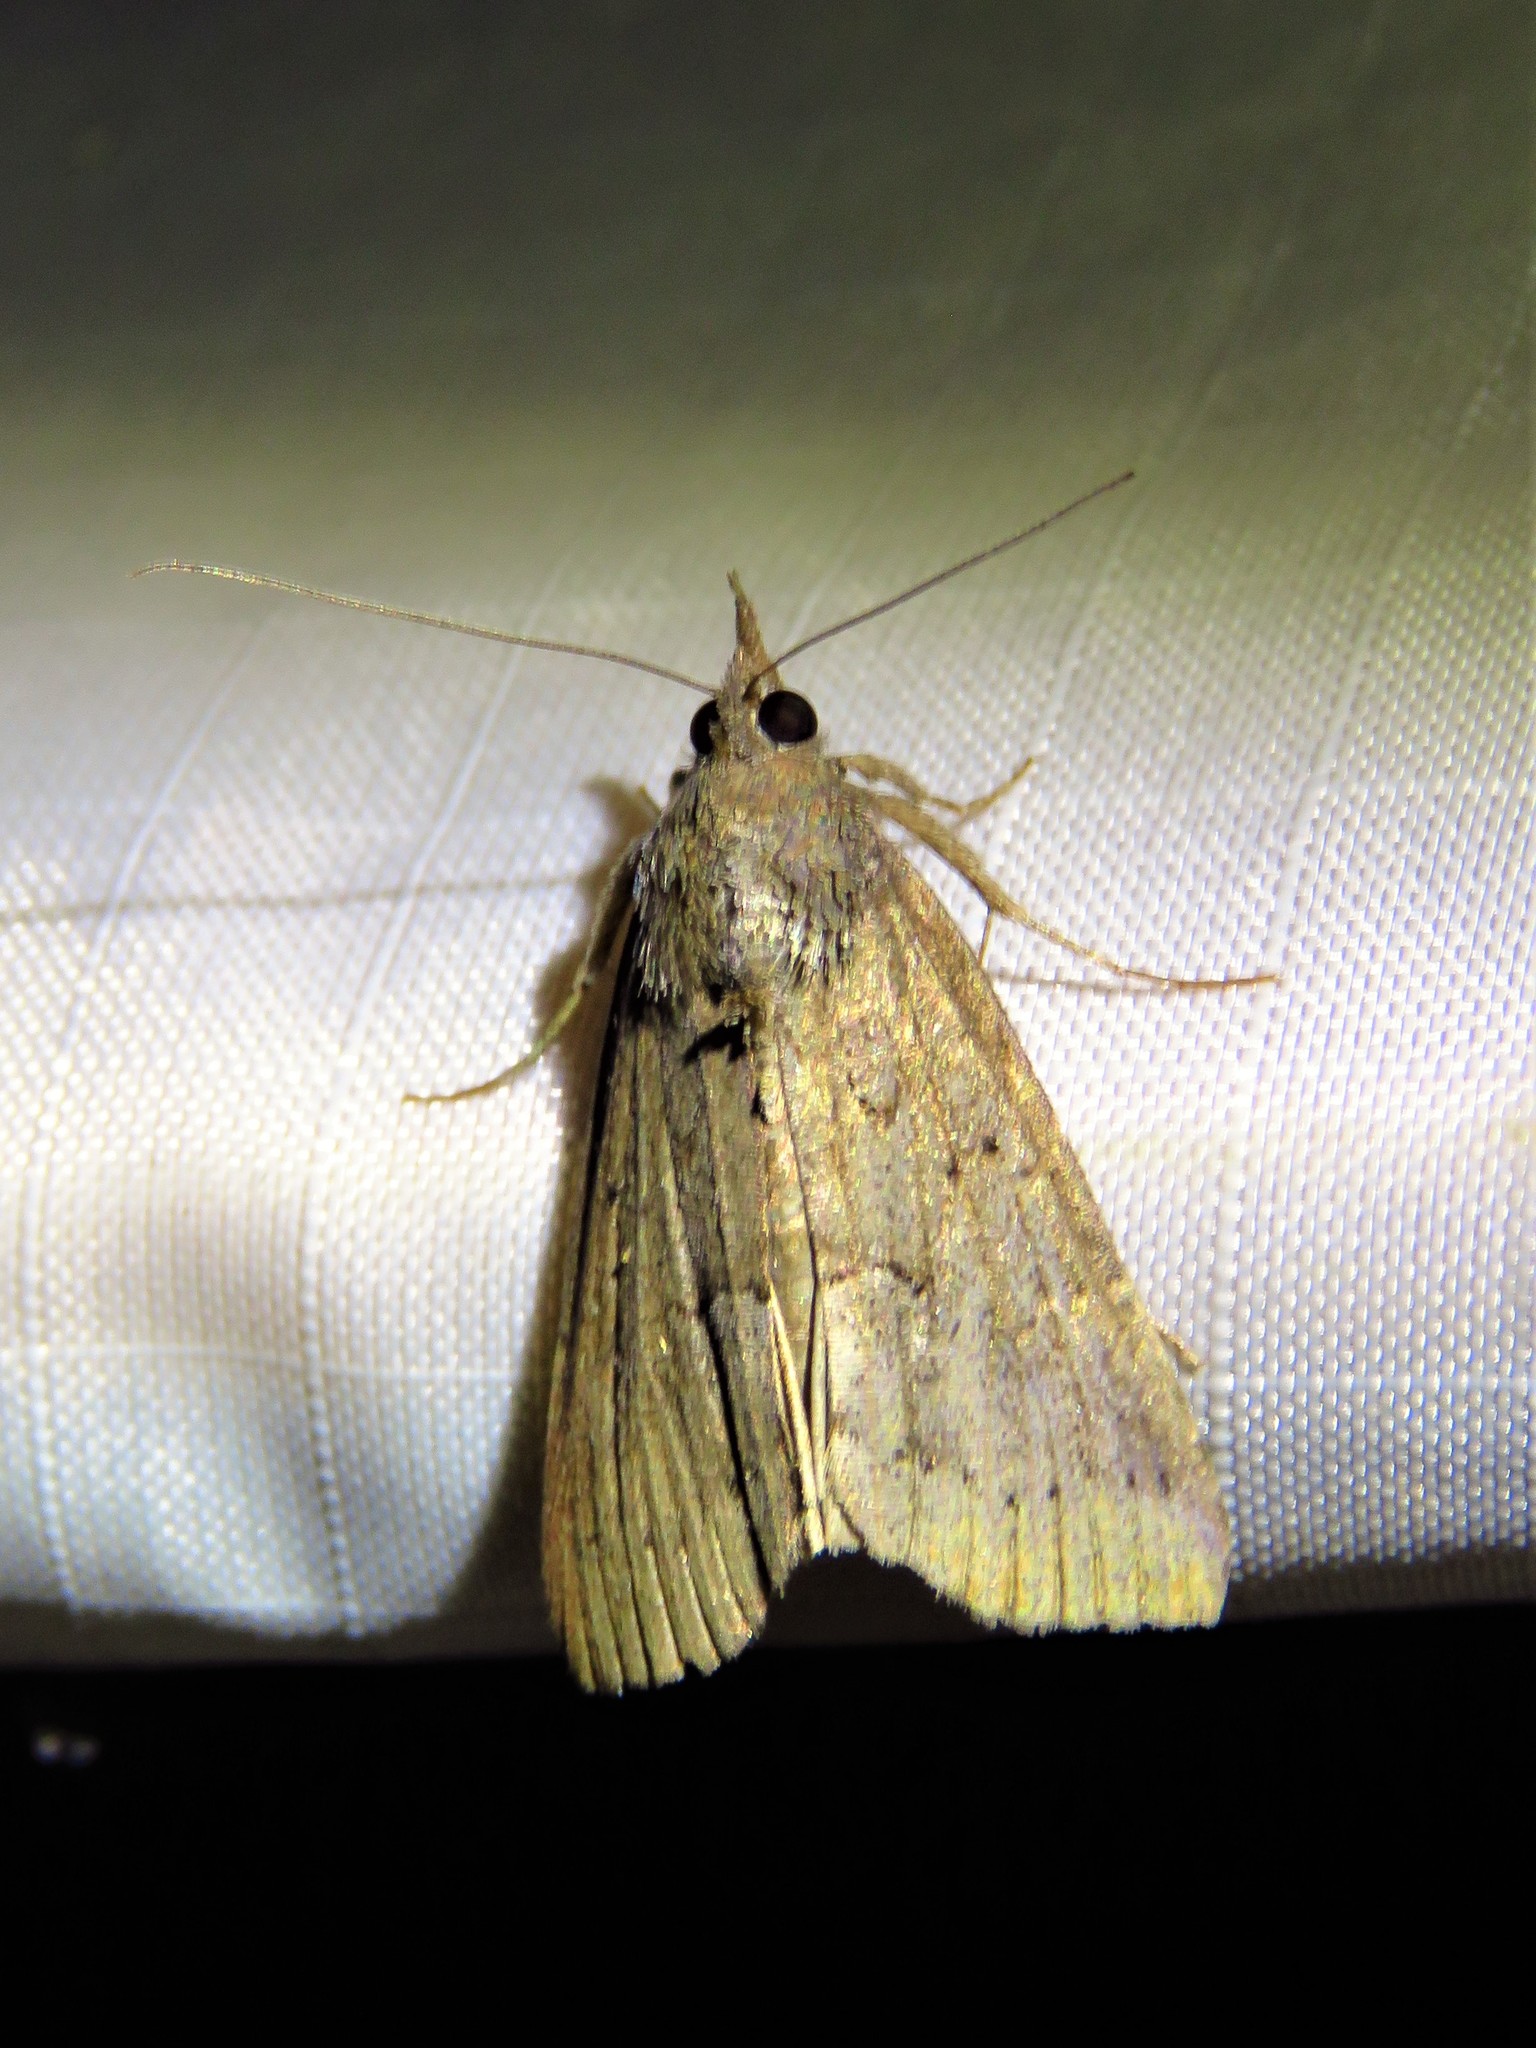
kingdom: Animalia
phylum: Arthropoda
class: Insecta
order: Lepidoptera
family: Erebidae
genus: Hypena
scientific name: Hypena scabra
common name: Green cloverworm
